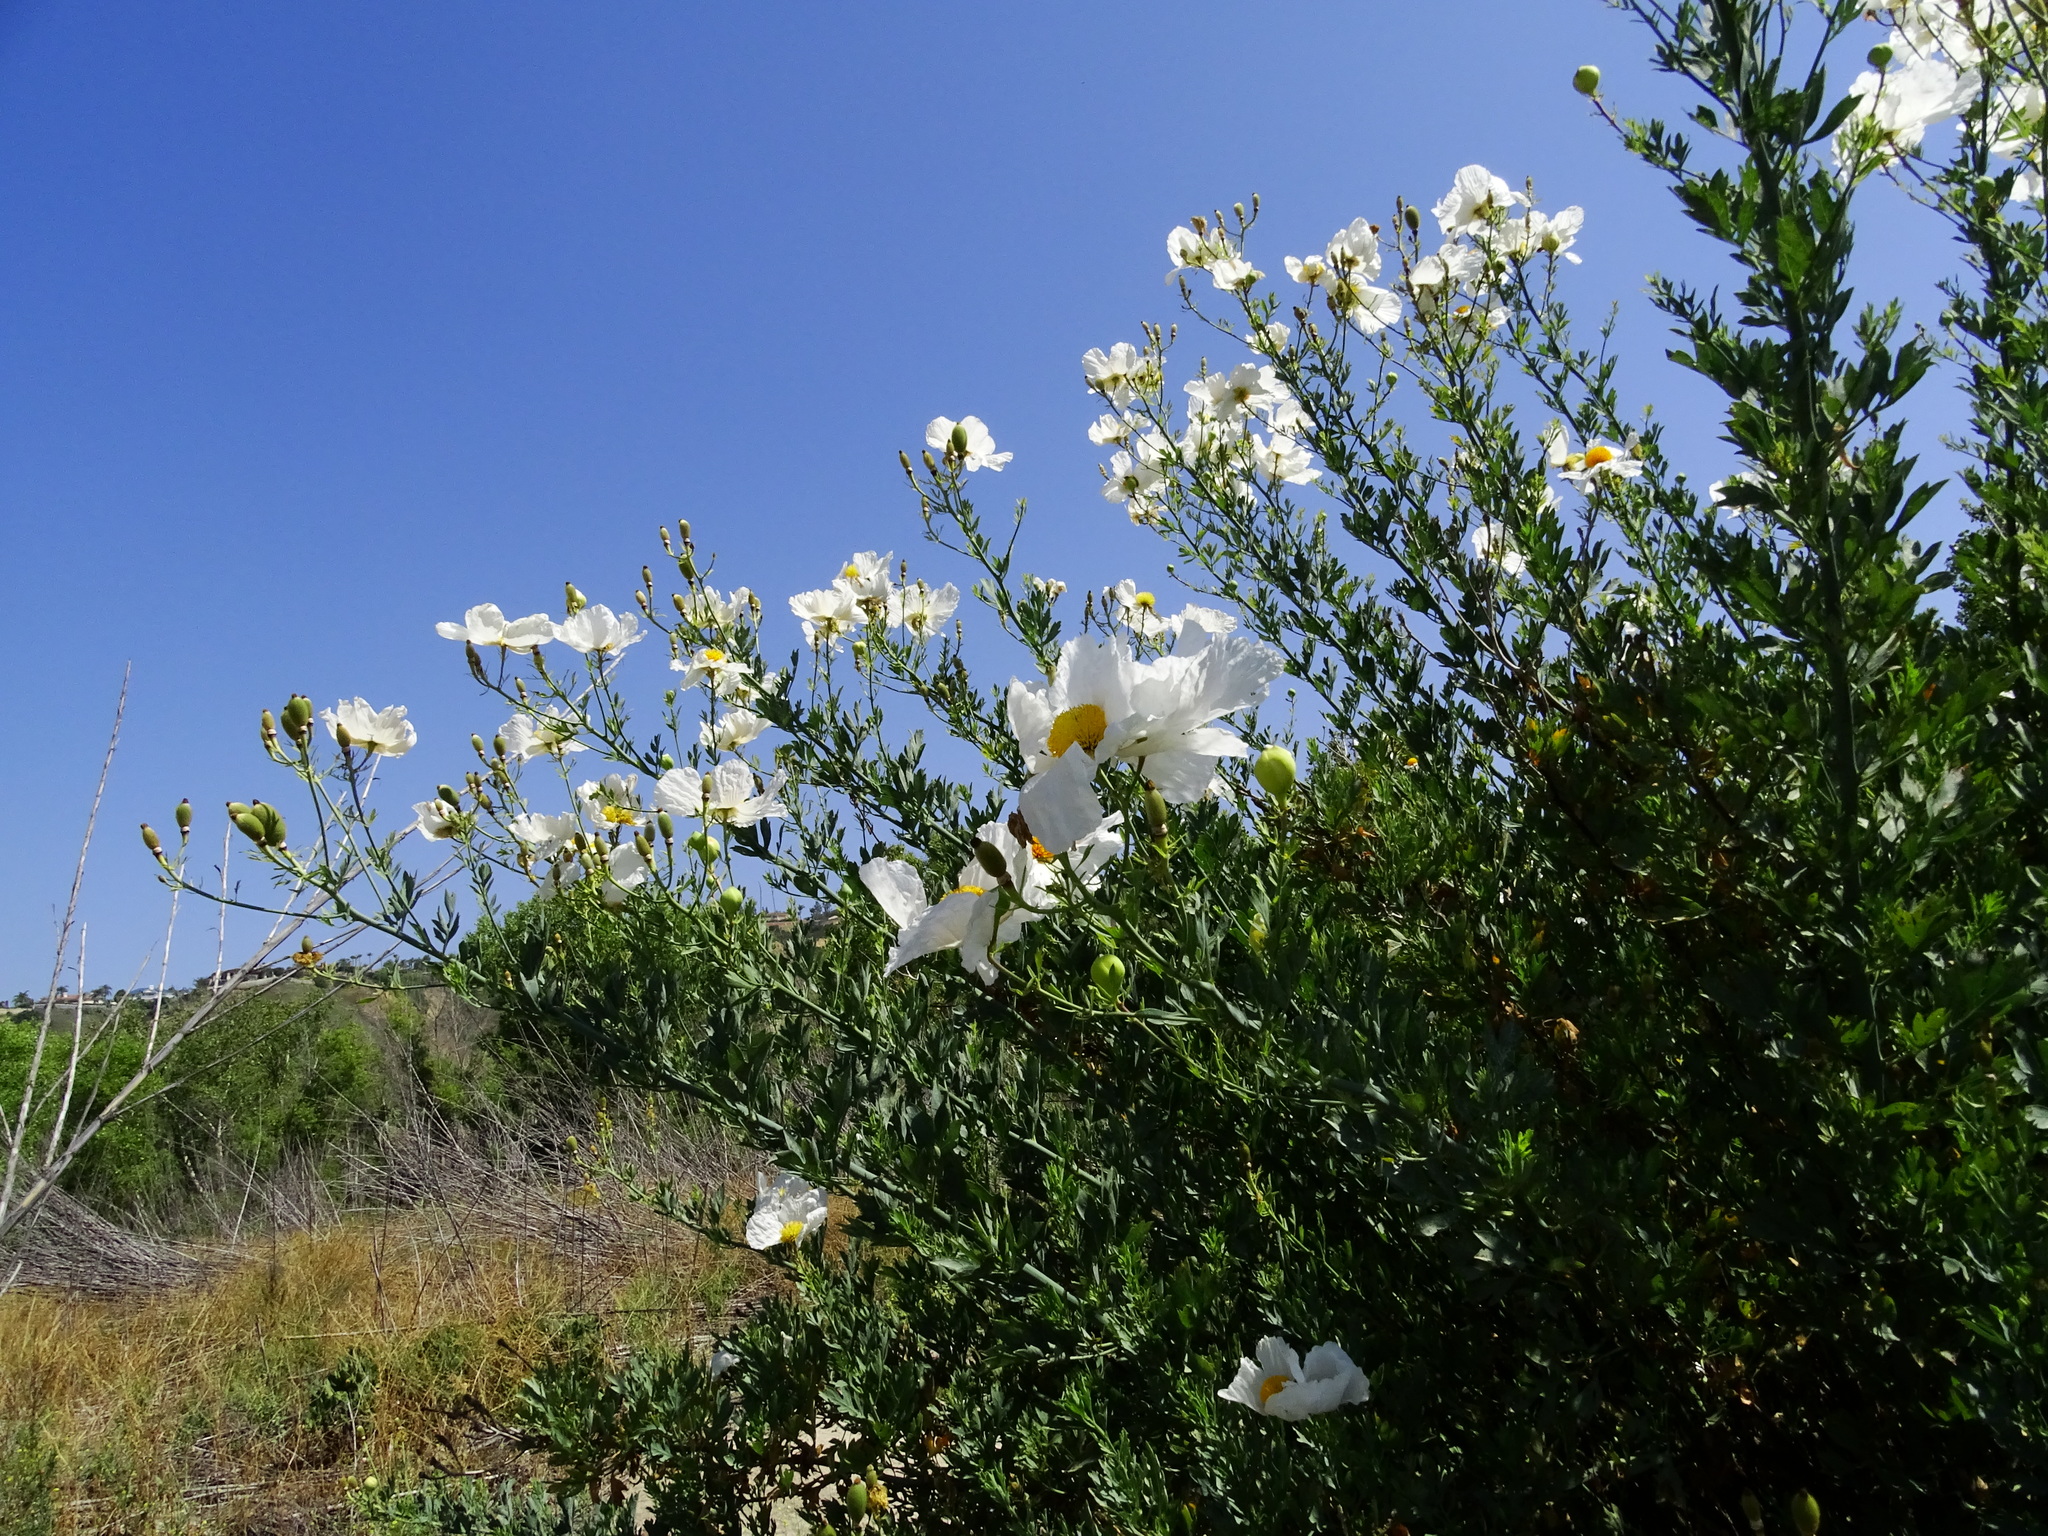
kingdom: Plantae
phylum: Tracheophyta
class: Magnoliopsida
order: Ranunculales
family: Papaveraceae
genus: Romneya
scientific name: Romneya coulteri
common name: California tree-poppy
